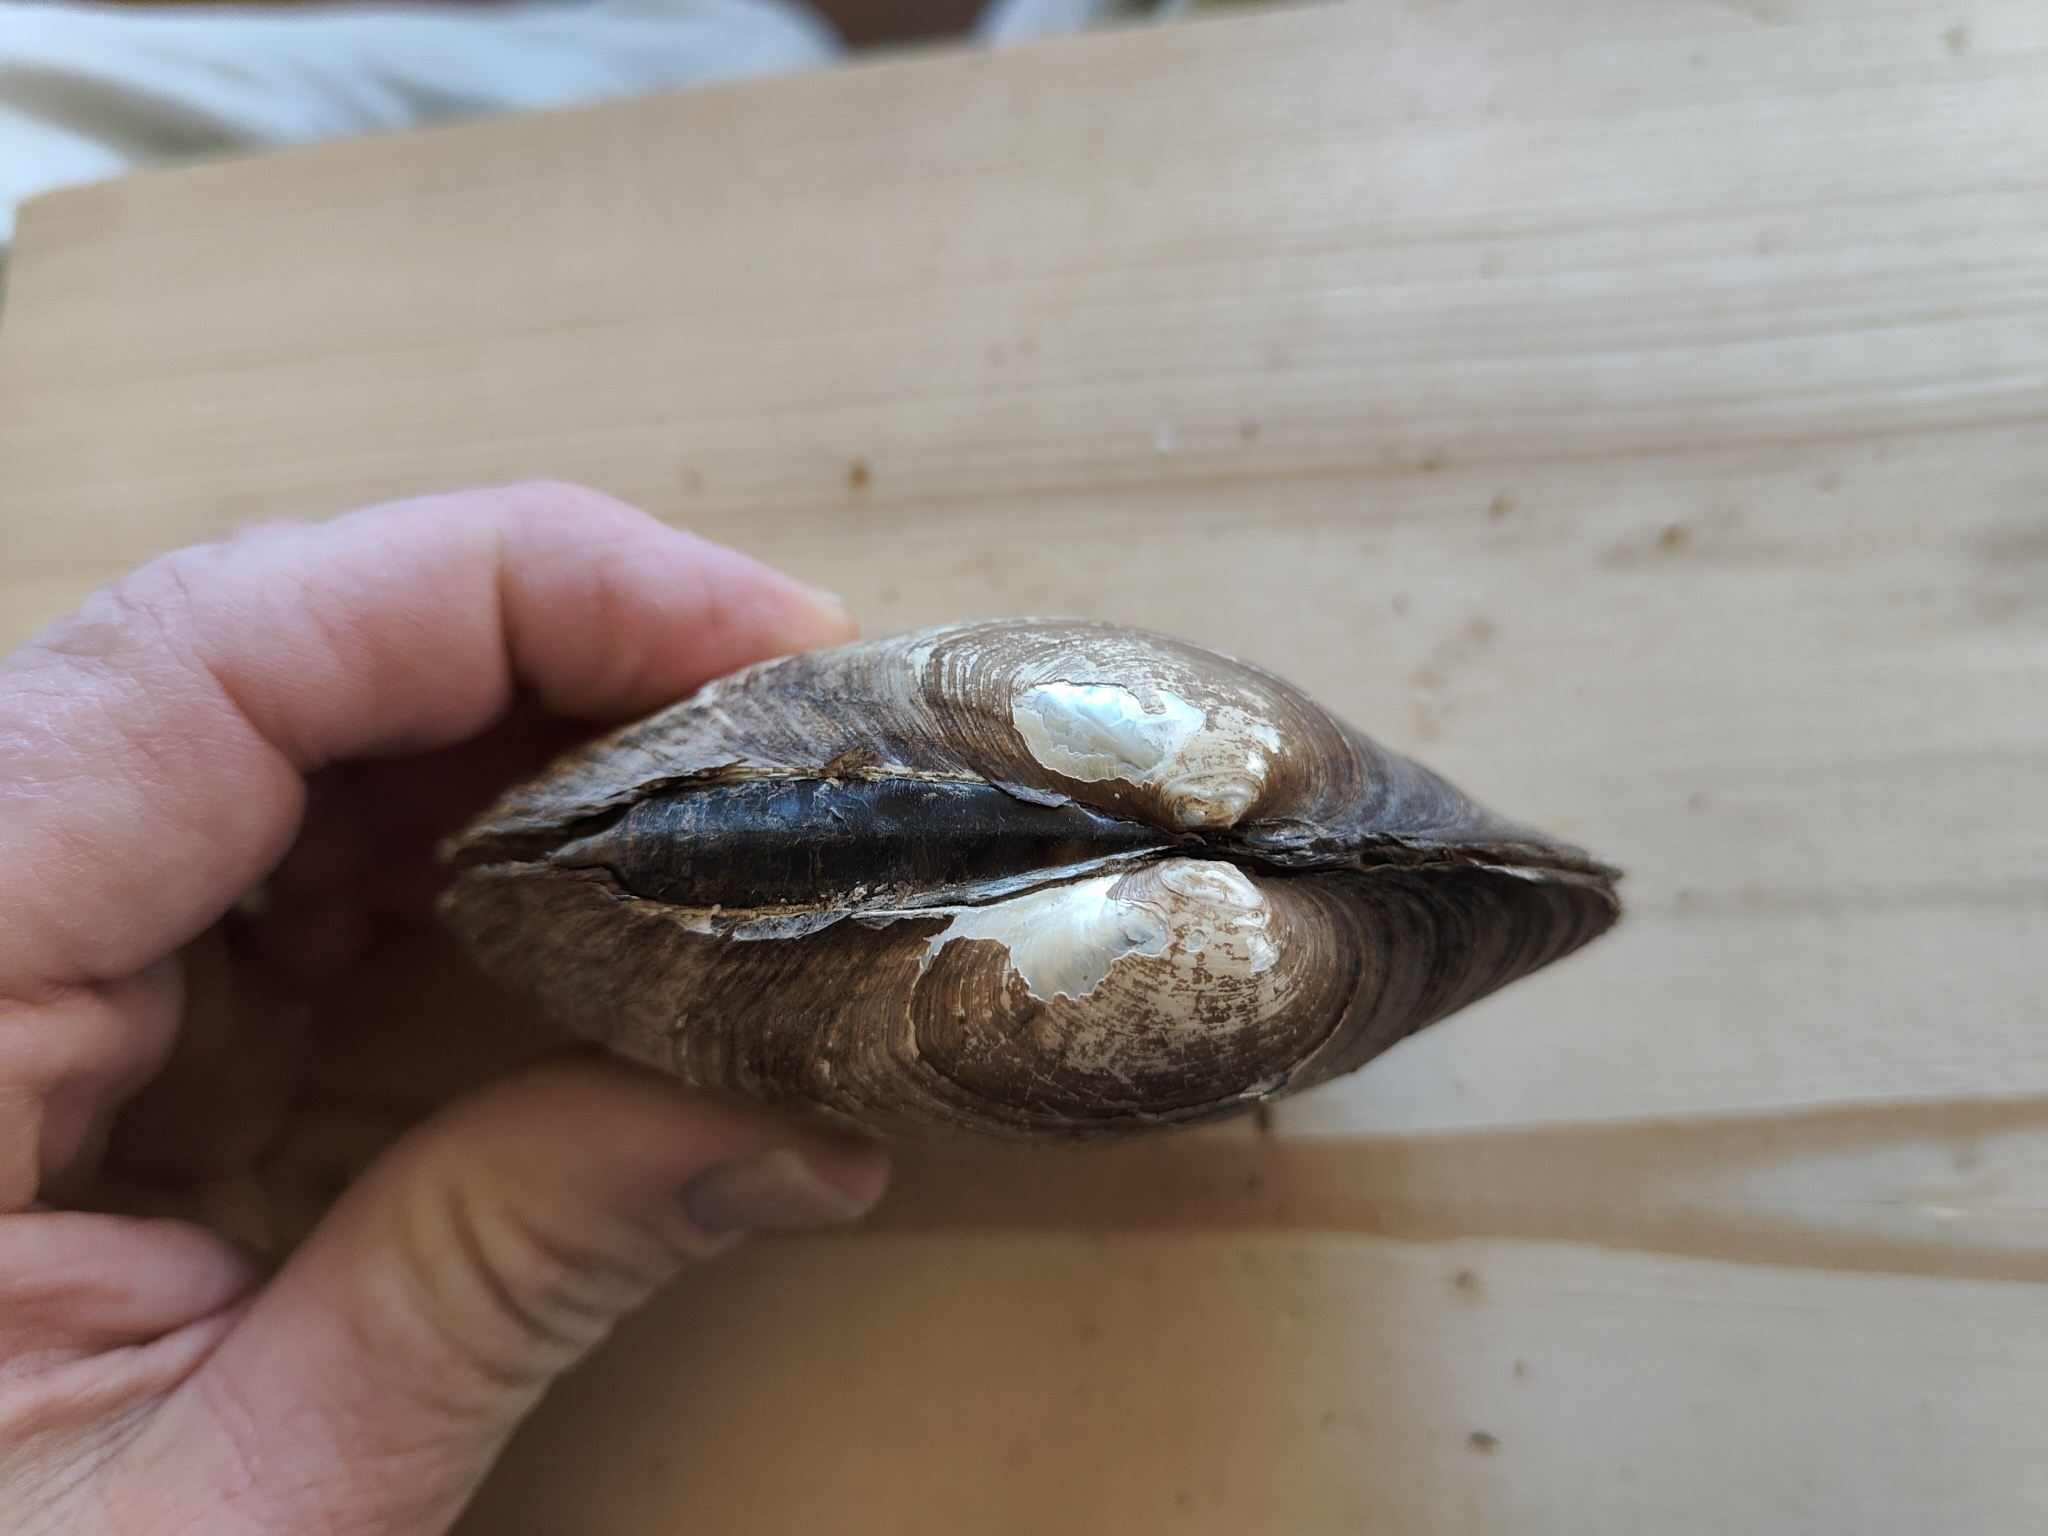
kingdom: Animalia
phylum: Mollusca
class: Bivalvia
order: Unionida
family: Unionidae
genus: Lampsilis
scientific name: Lampsilis cardium
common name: Plain pocketbook
